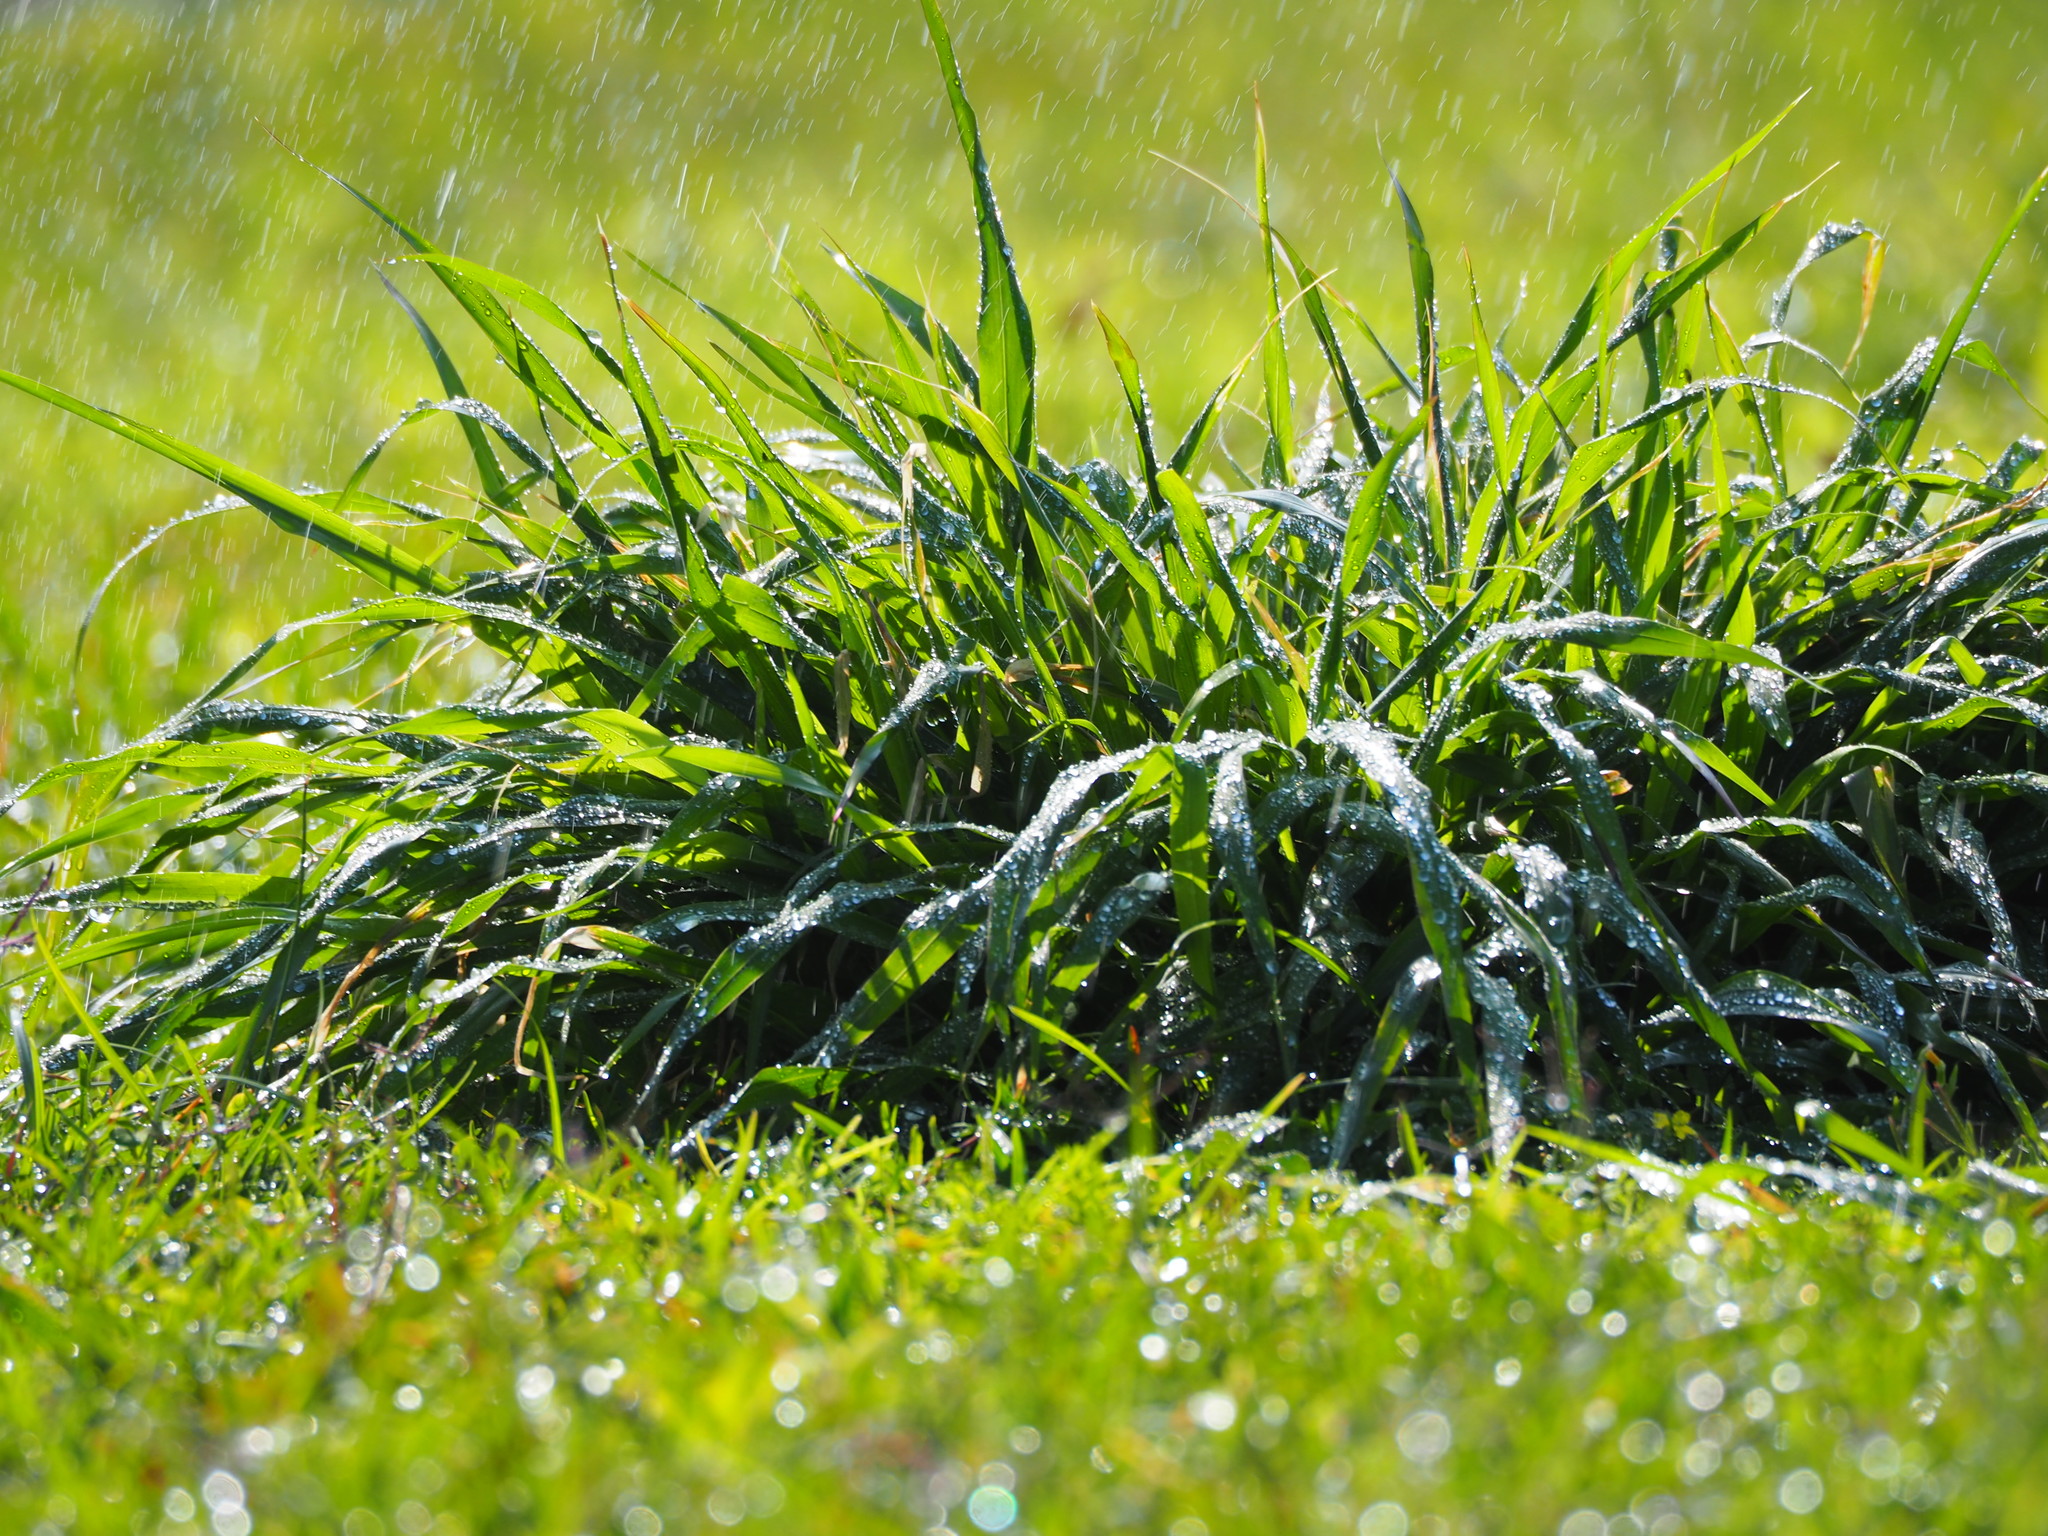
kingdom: Plantae
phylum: Tracheophyta
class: Liliopsida
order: Poales
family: Poaceae
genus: Megathyrsus
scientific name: Megathyrsus maximus
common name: Guineagrass
